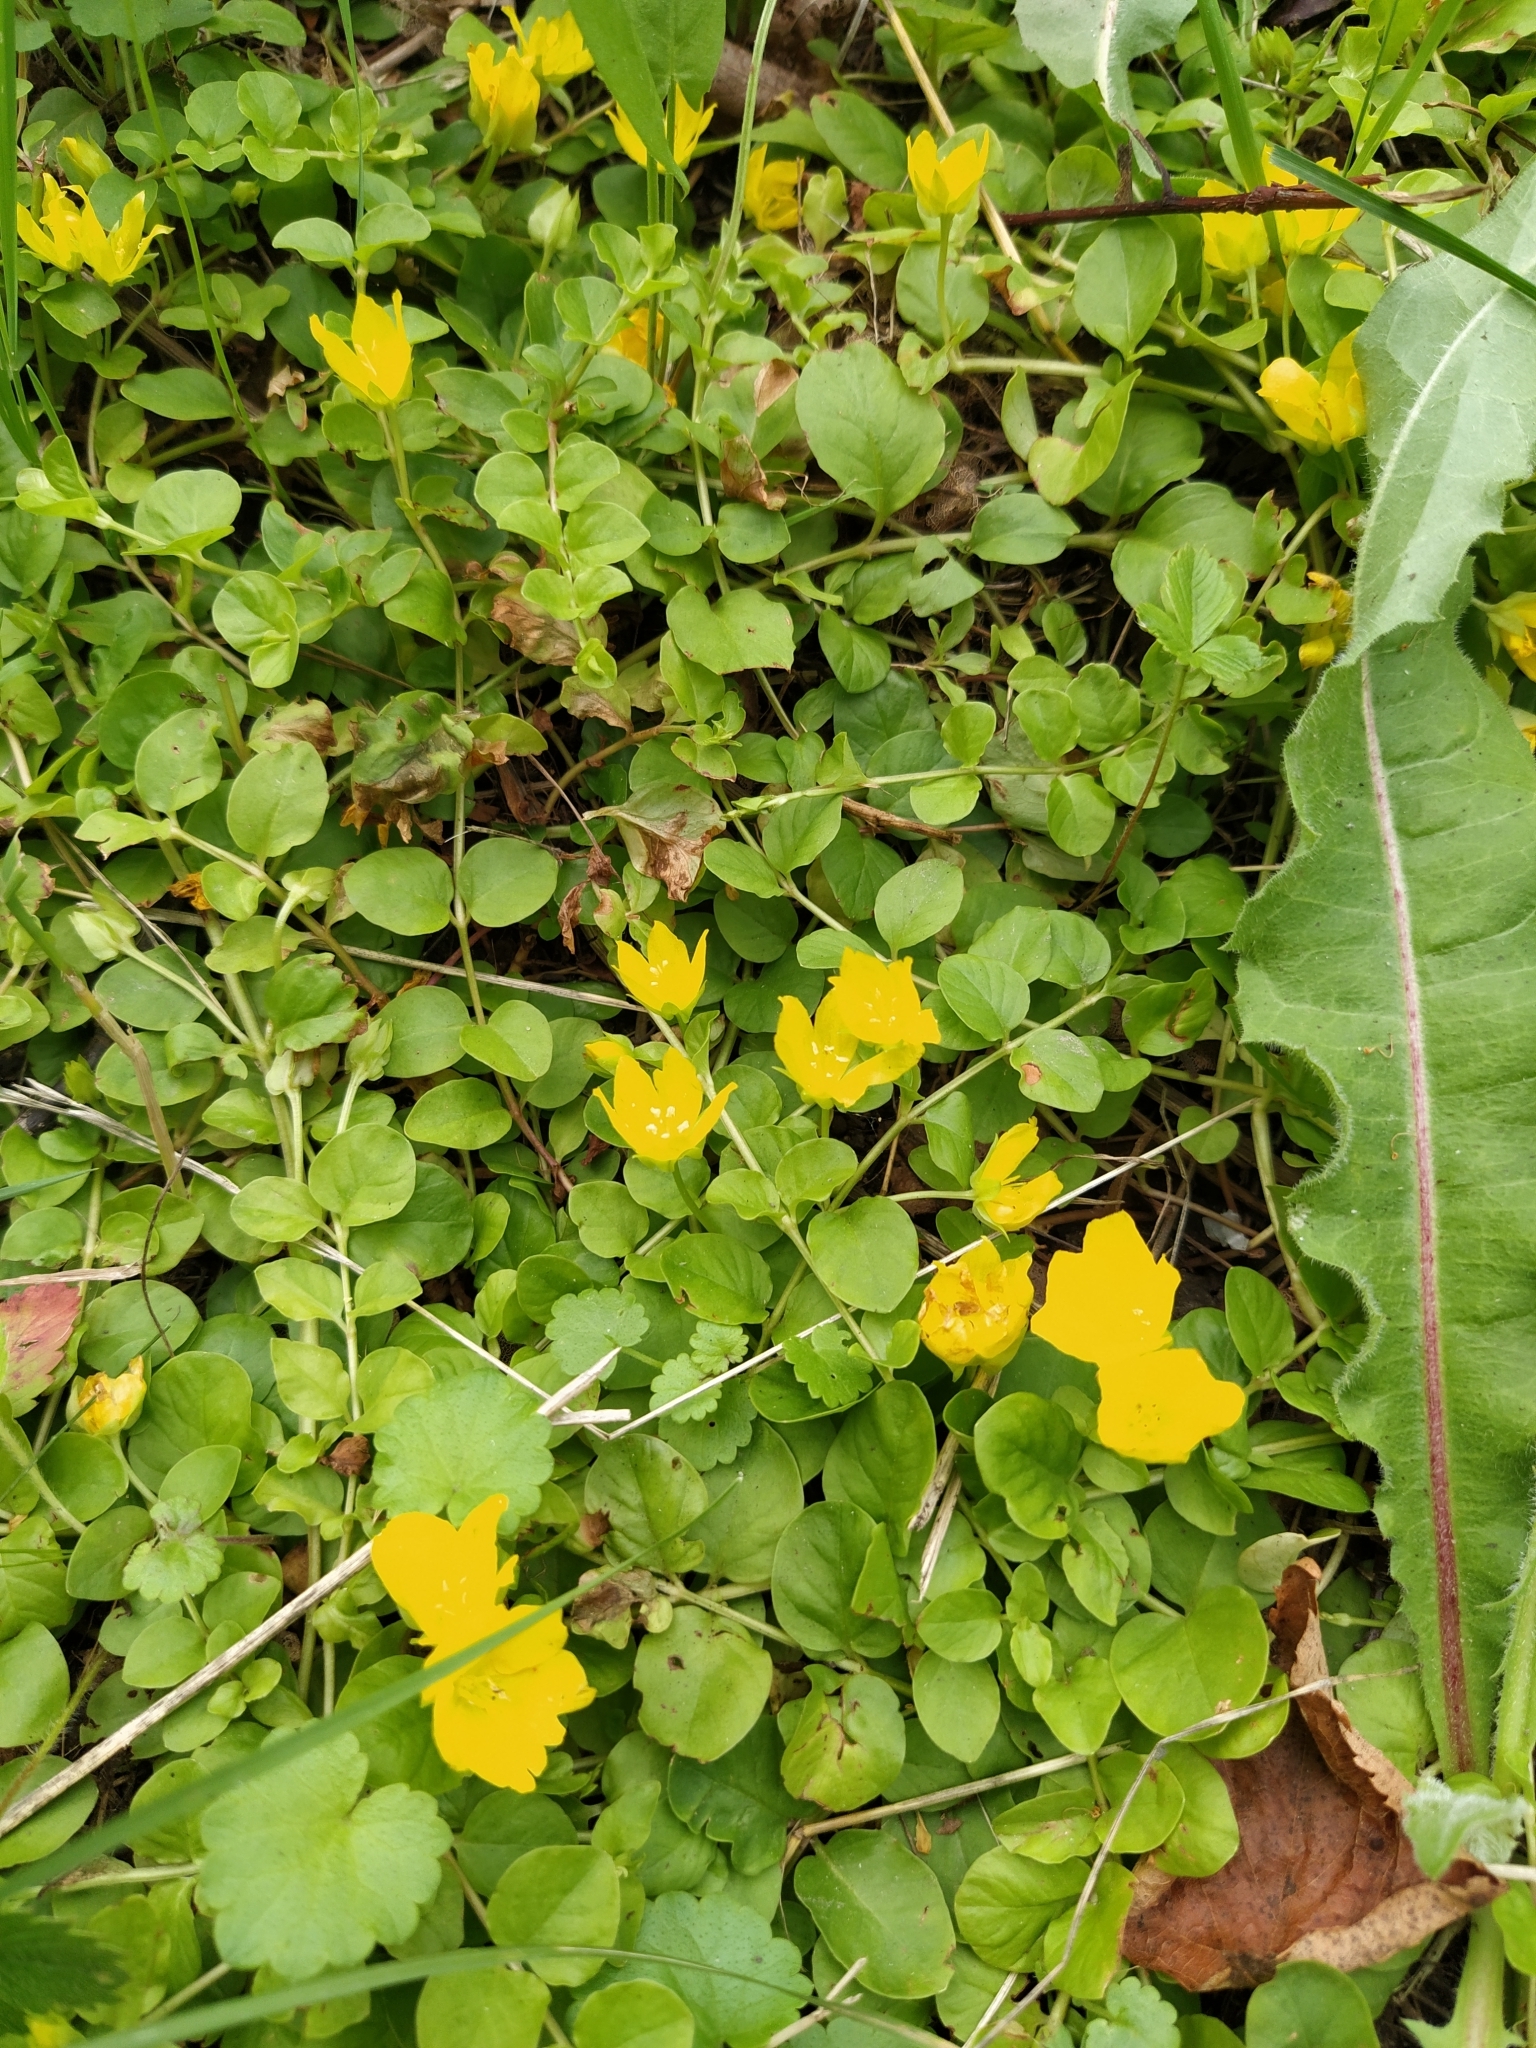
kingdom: Plantae
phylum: Tracheophyta
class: Magnoliopsida
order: Ericales
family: Primulaceae
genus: Lysimachia
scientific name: Lysimachia nummularia
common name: Moneywort
